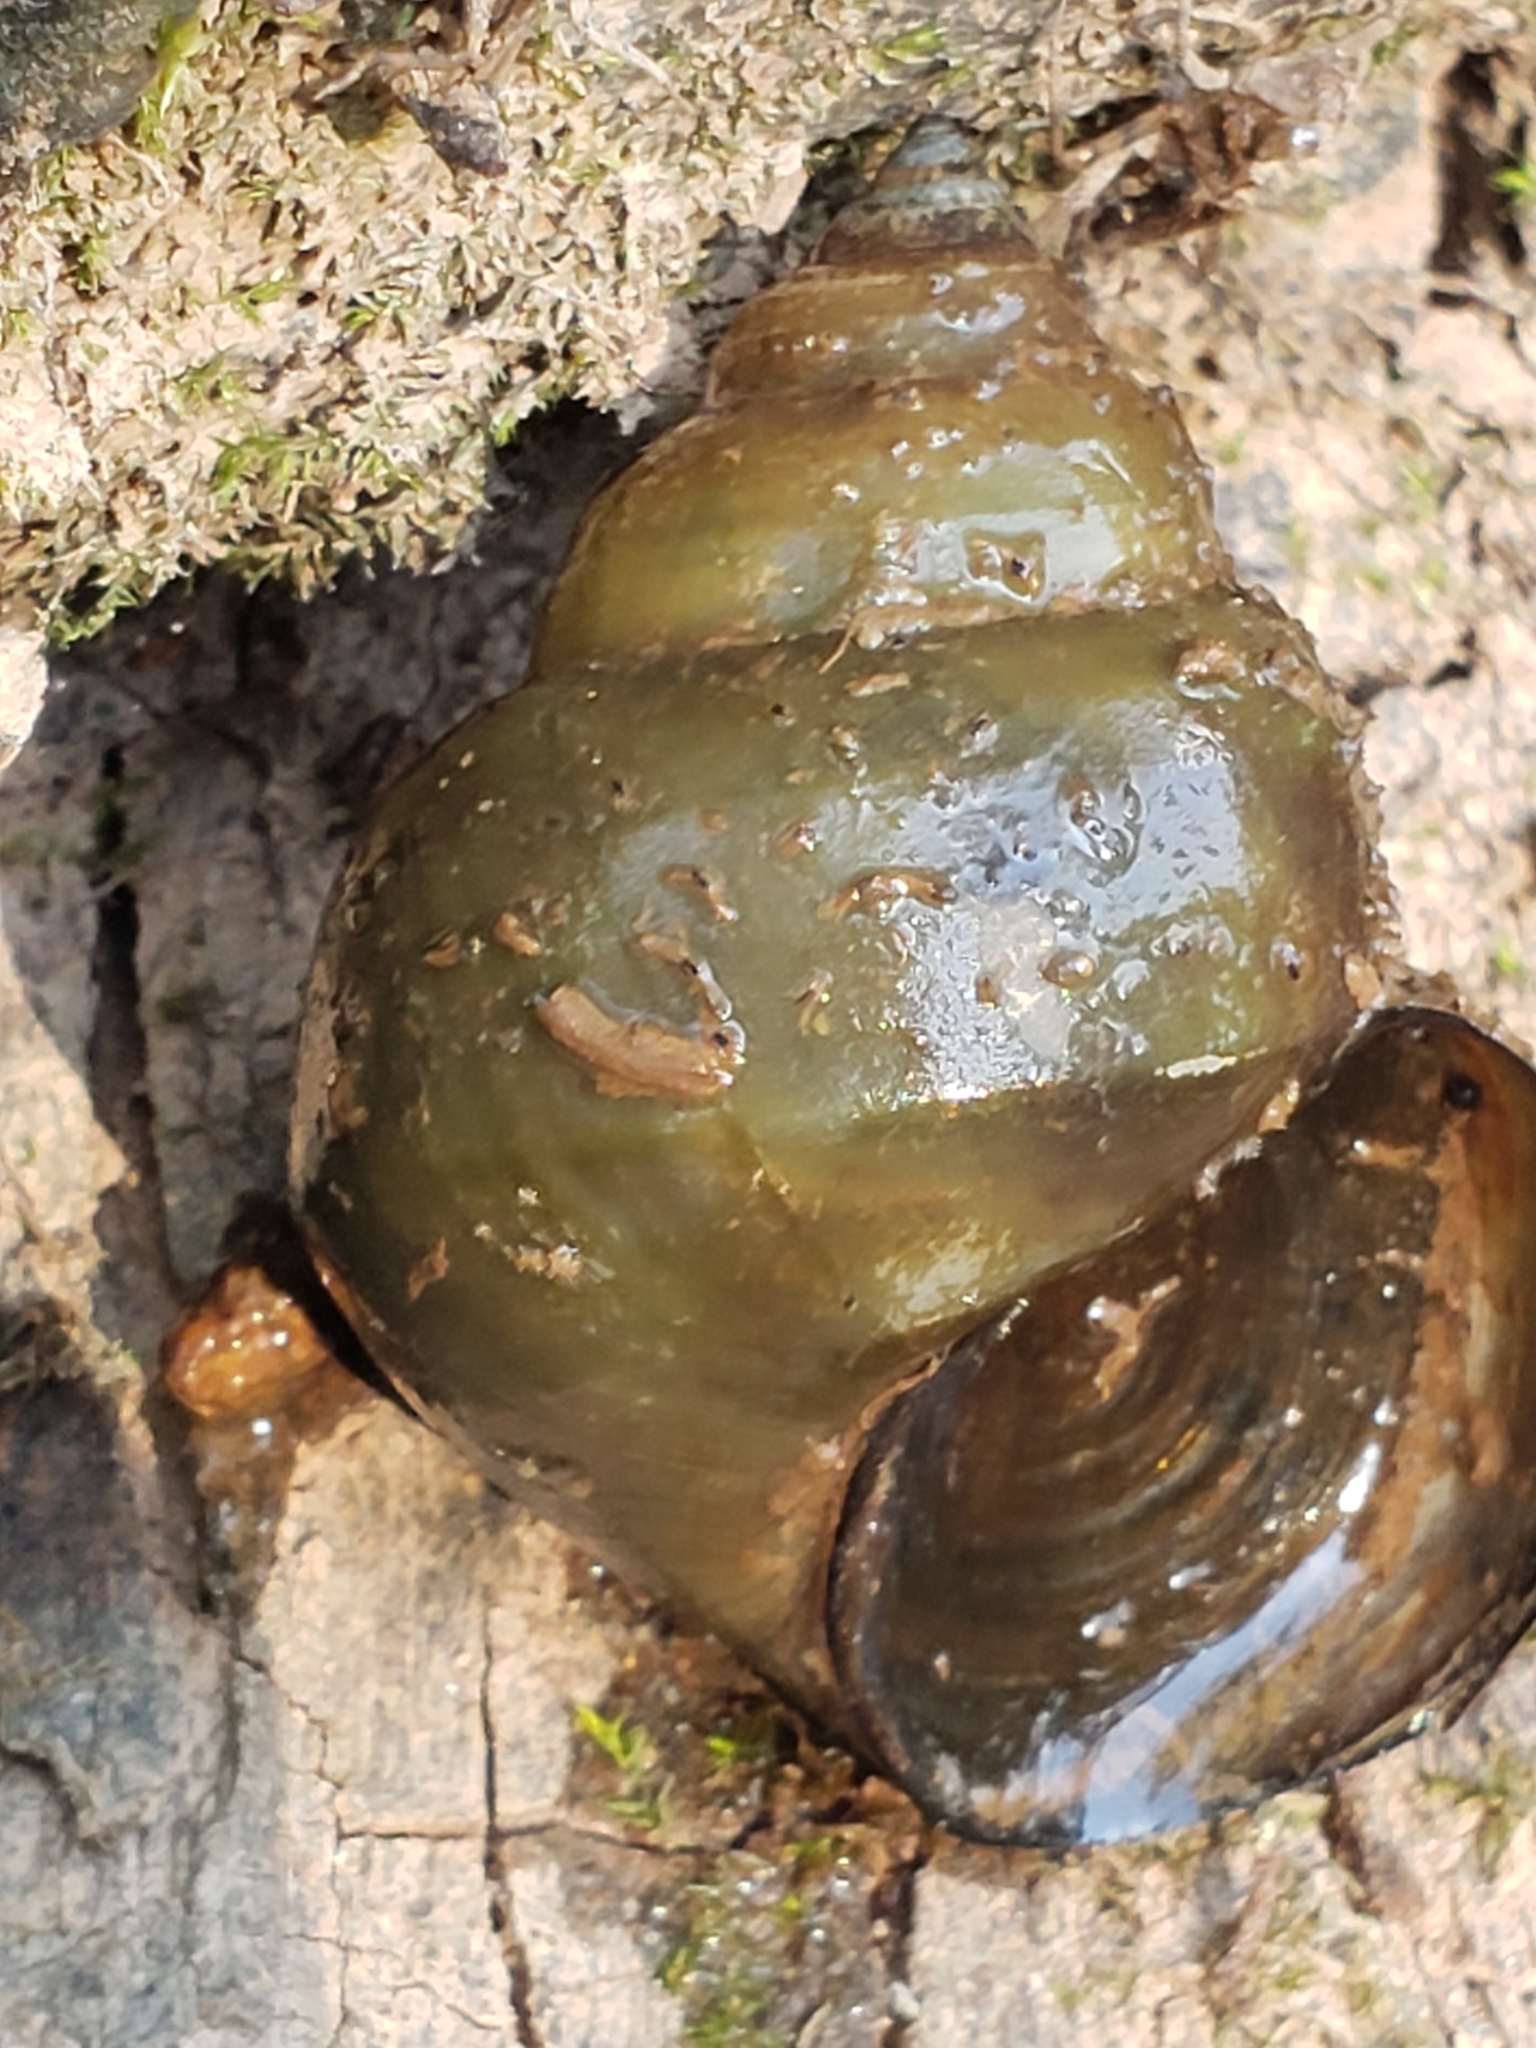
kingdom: Animalia
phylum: Mollusca
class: Gastropoda
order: Architaenioglossa
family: Viviparidae
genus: Cipangopaludina
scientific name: Cipangopaludina chinensis
